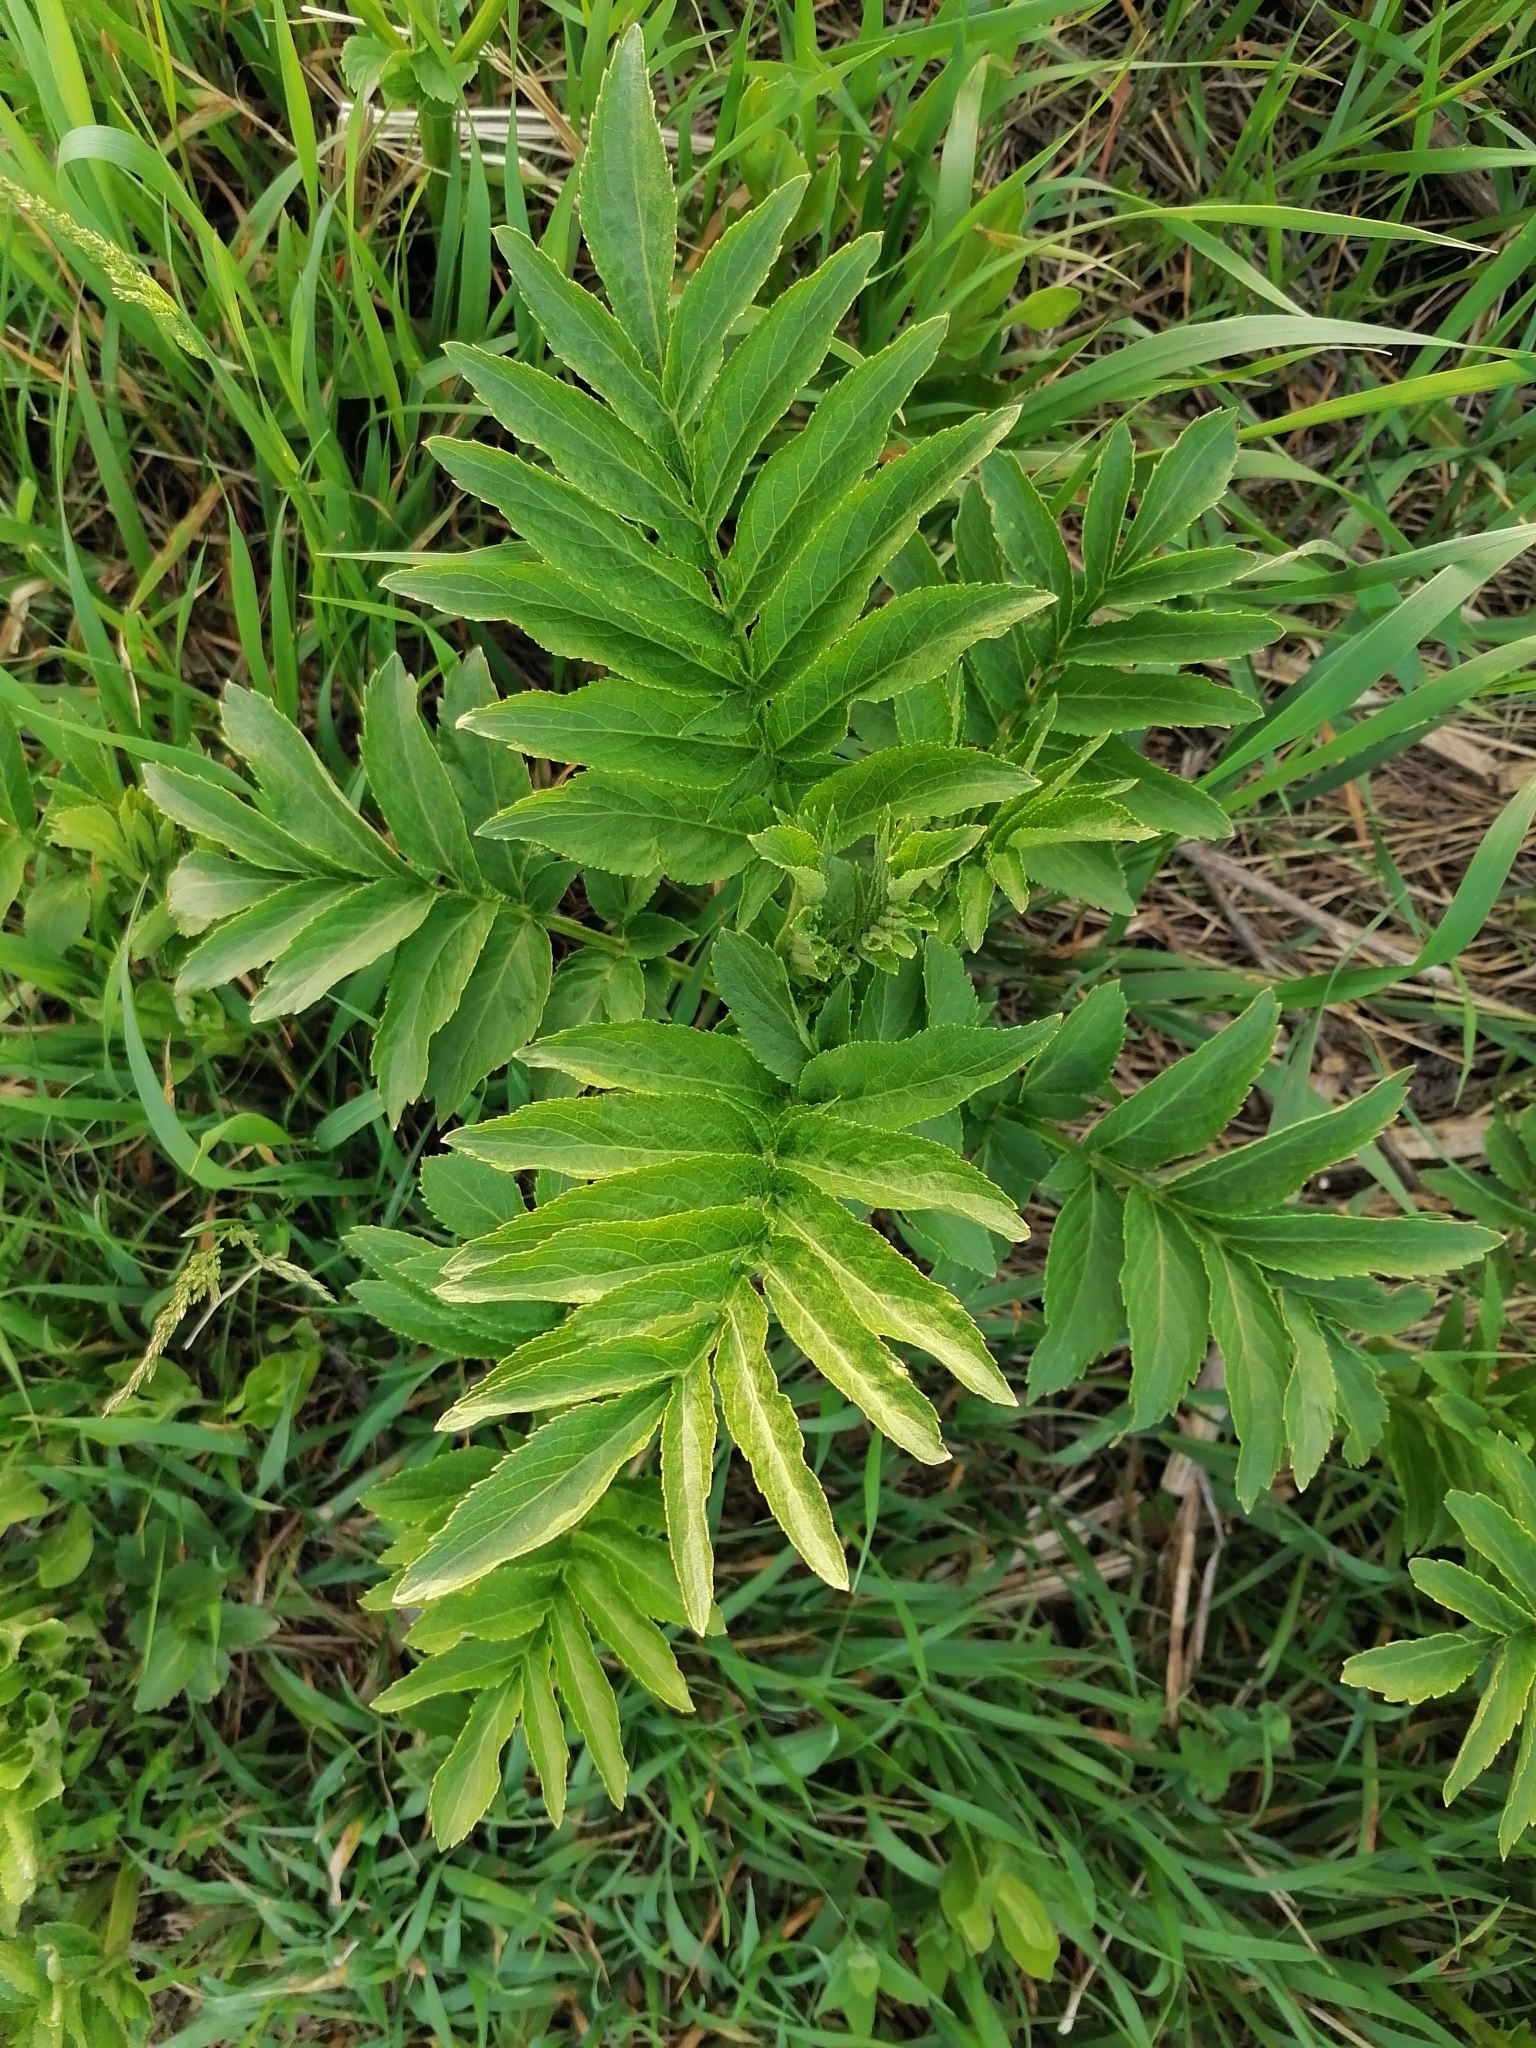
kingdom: Plantae
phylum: Tracheophyta
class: Magnoliopsida
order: Dipsacales
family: Viburnaceae
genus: Sambucus
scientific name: Sambucus ebulus
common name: Dwarf elder
